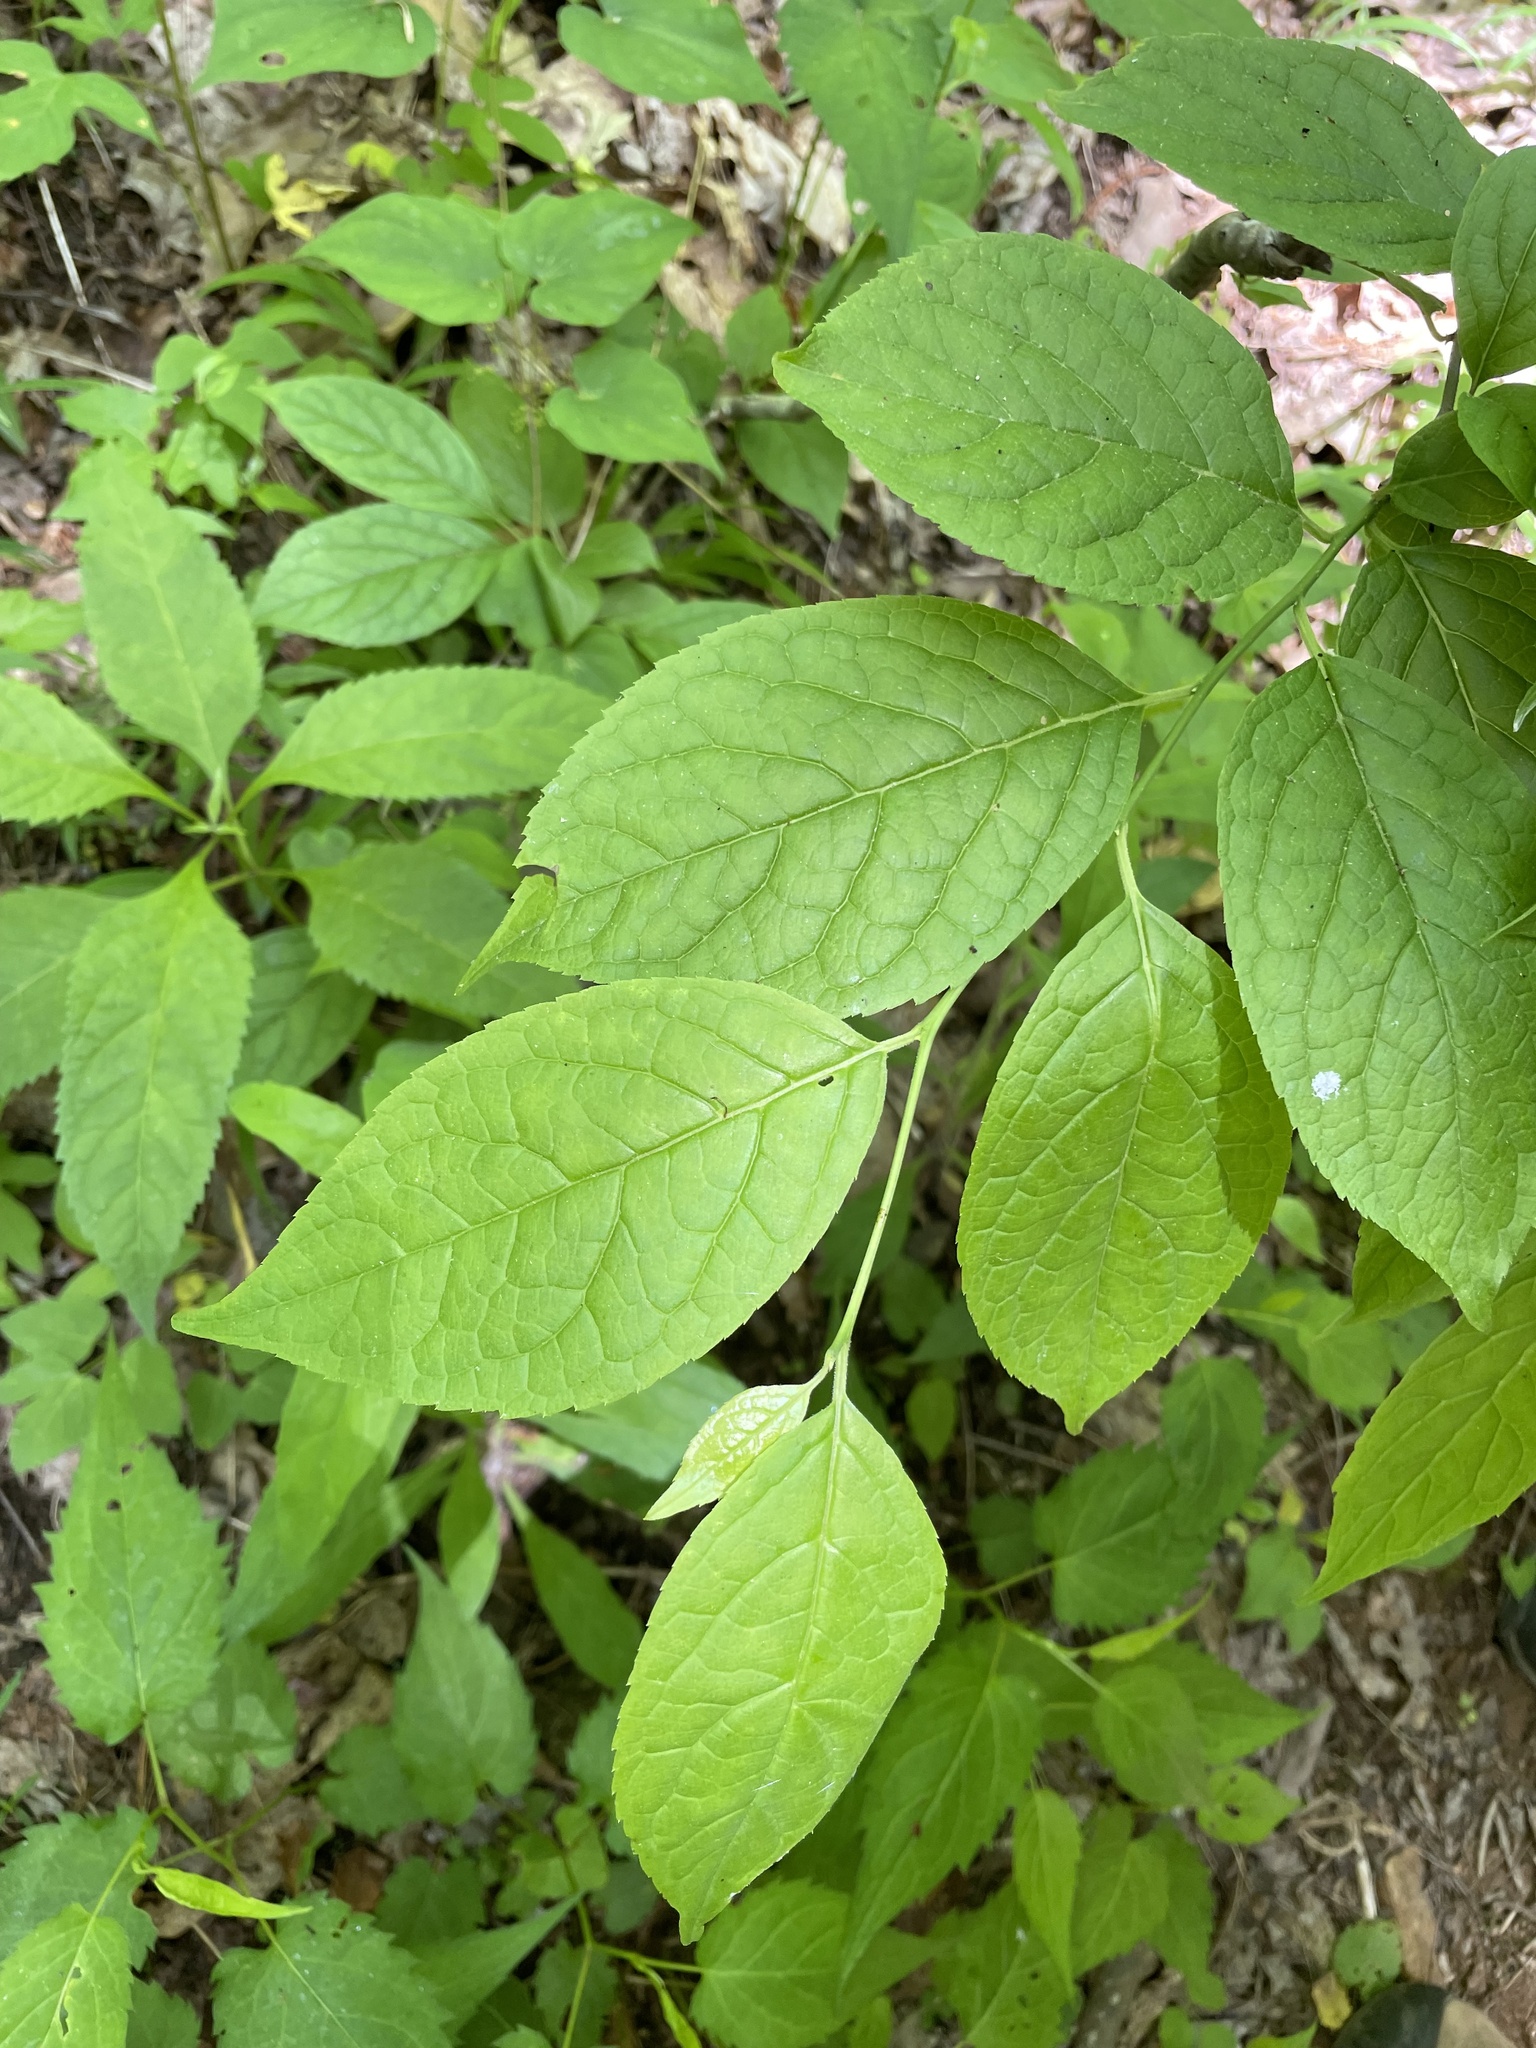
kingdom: Plantae
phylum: Tracheophyta
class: Magnoliopsida
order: Santalales
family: Cervantesiaceae
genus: Pyrularia
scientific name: Pyrularia pubera
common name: Oilnut
